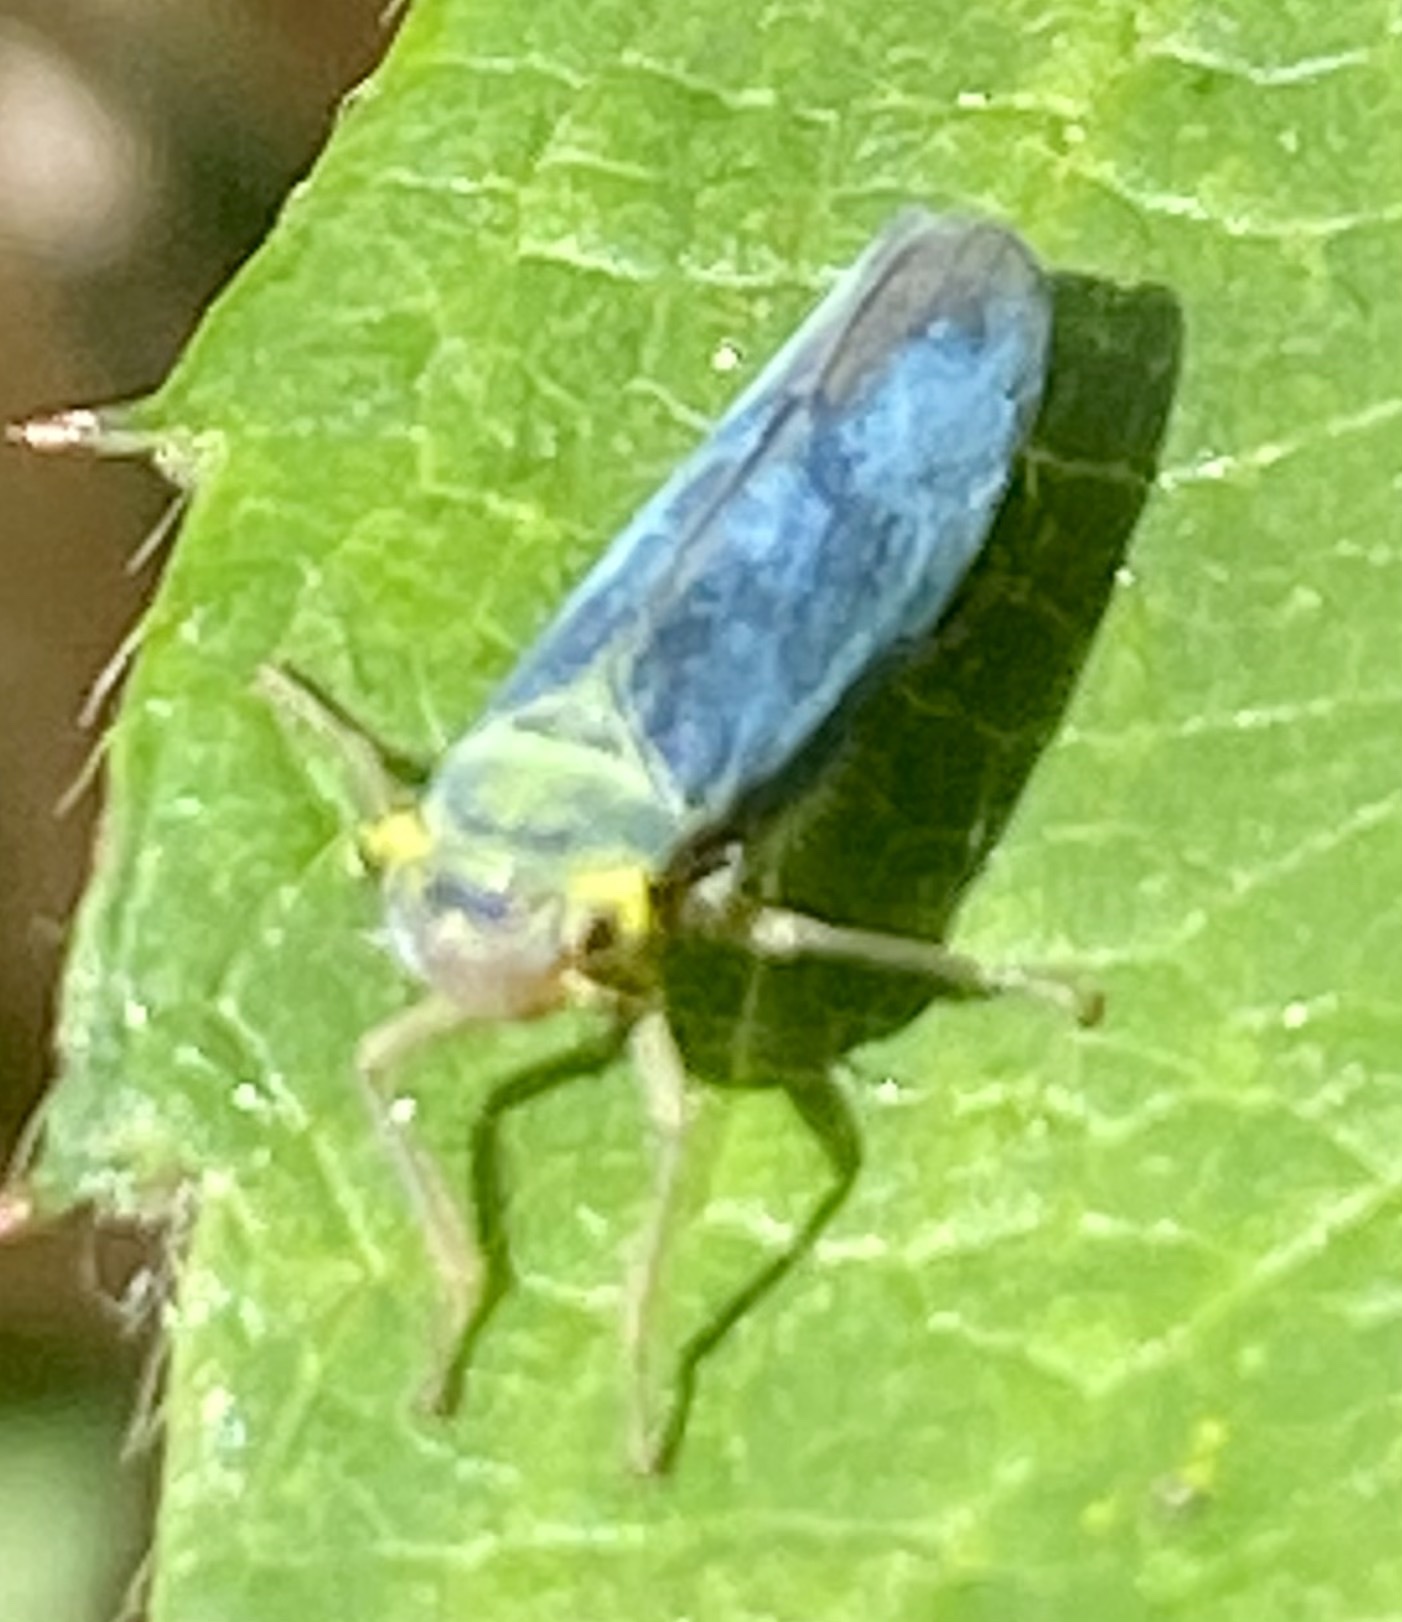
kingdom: Animalia
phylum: Arthropoda
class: Insecta
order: Hemiptera
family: Cicadellidae
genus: Cicadella
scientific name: Cicadella viridis
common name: Leafhopper
